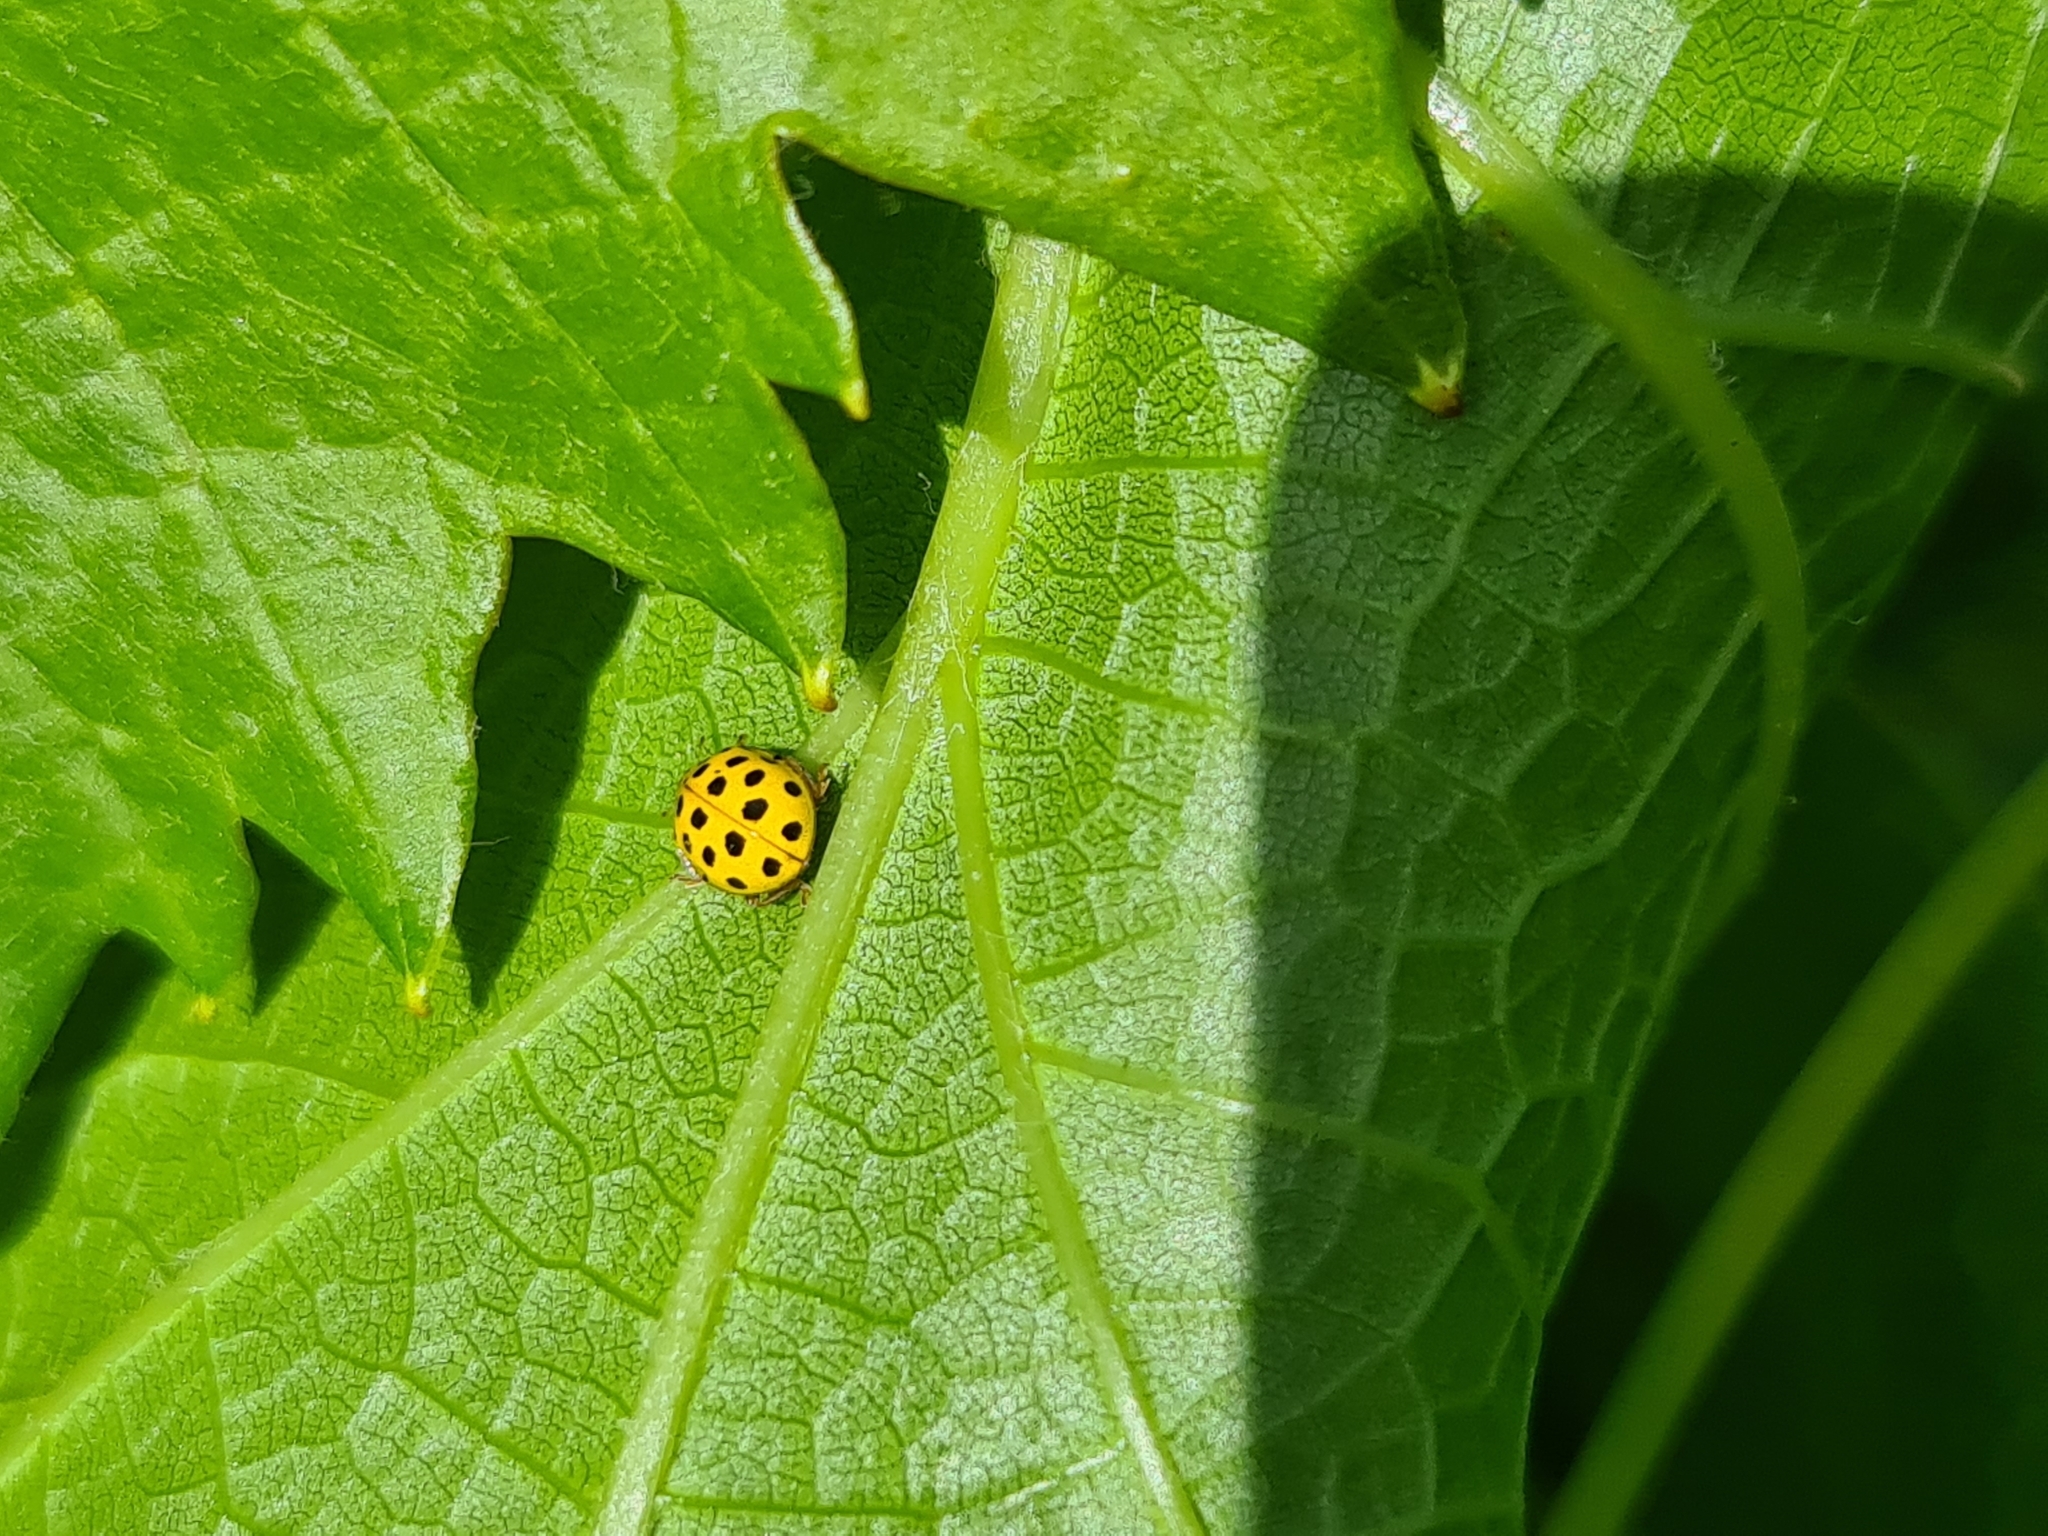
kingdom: Animalia
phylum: Arthropoda
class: Insecta
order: Coleoptera
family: Coccinellidae
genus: Psyllobora
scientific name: Psyllobora vigintiduopunctata
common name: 22-spot ladybird
